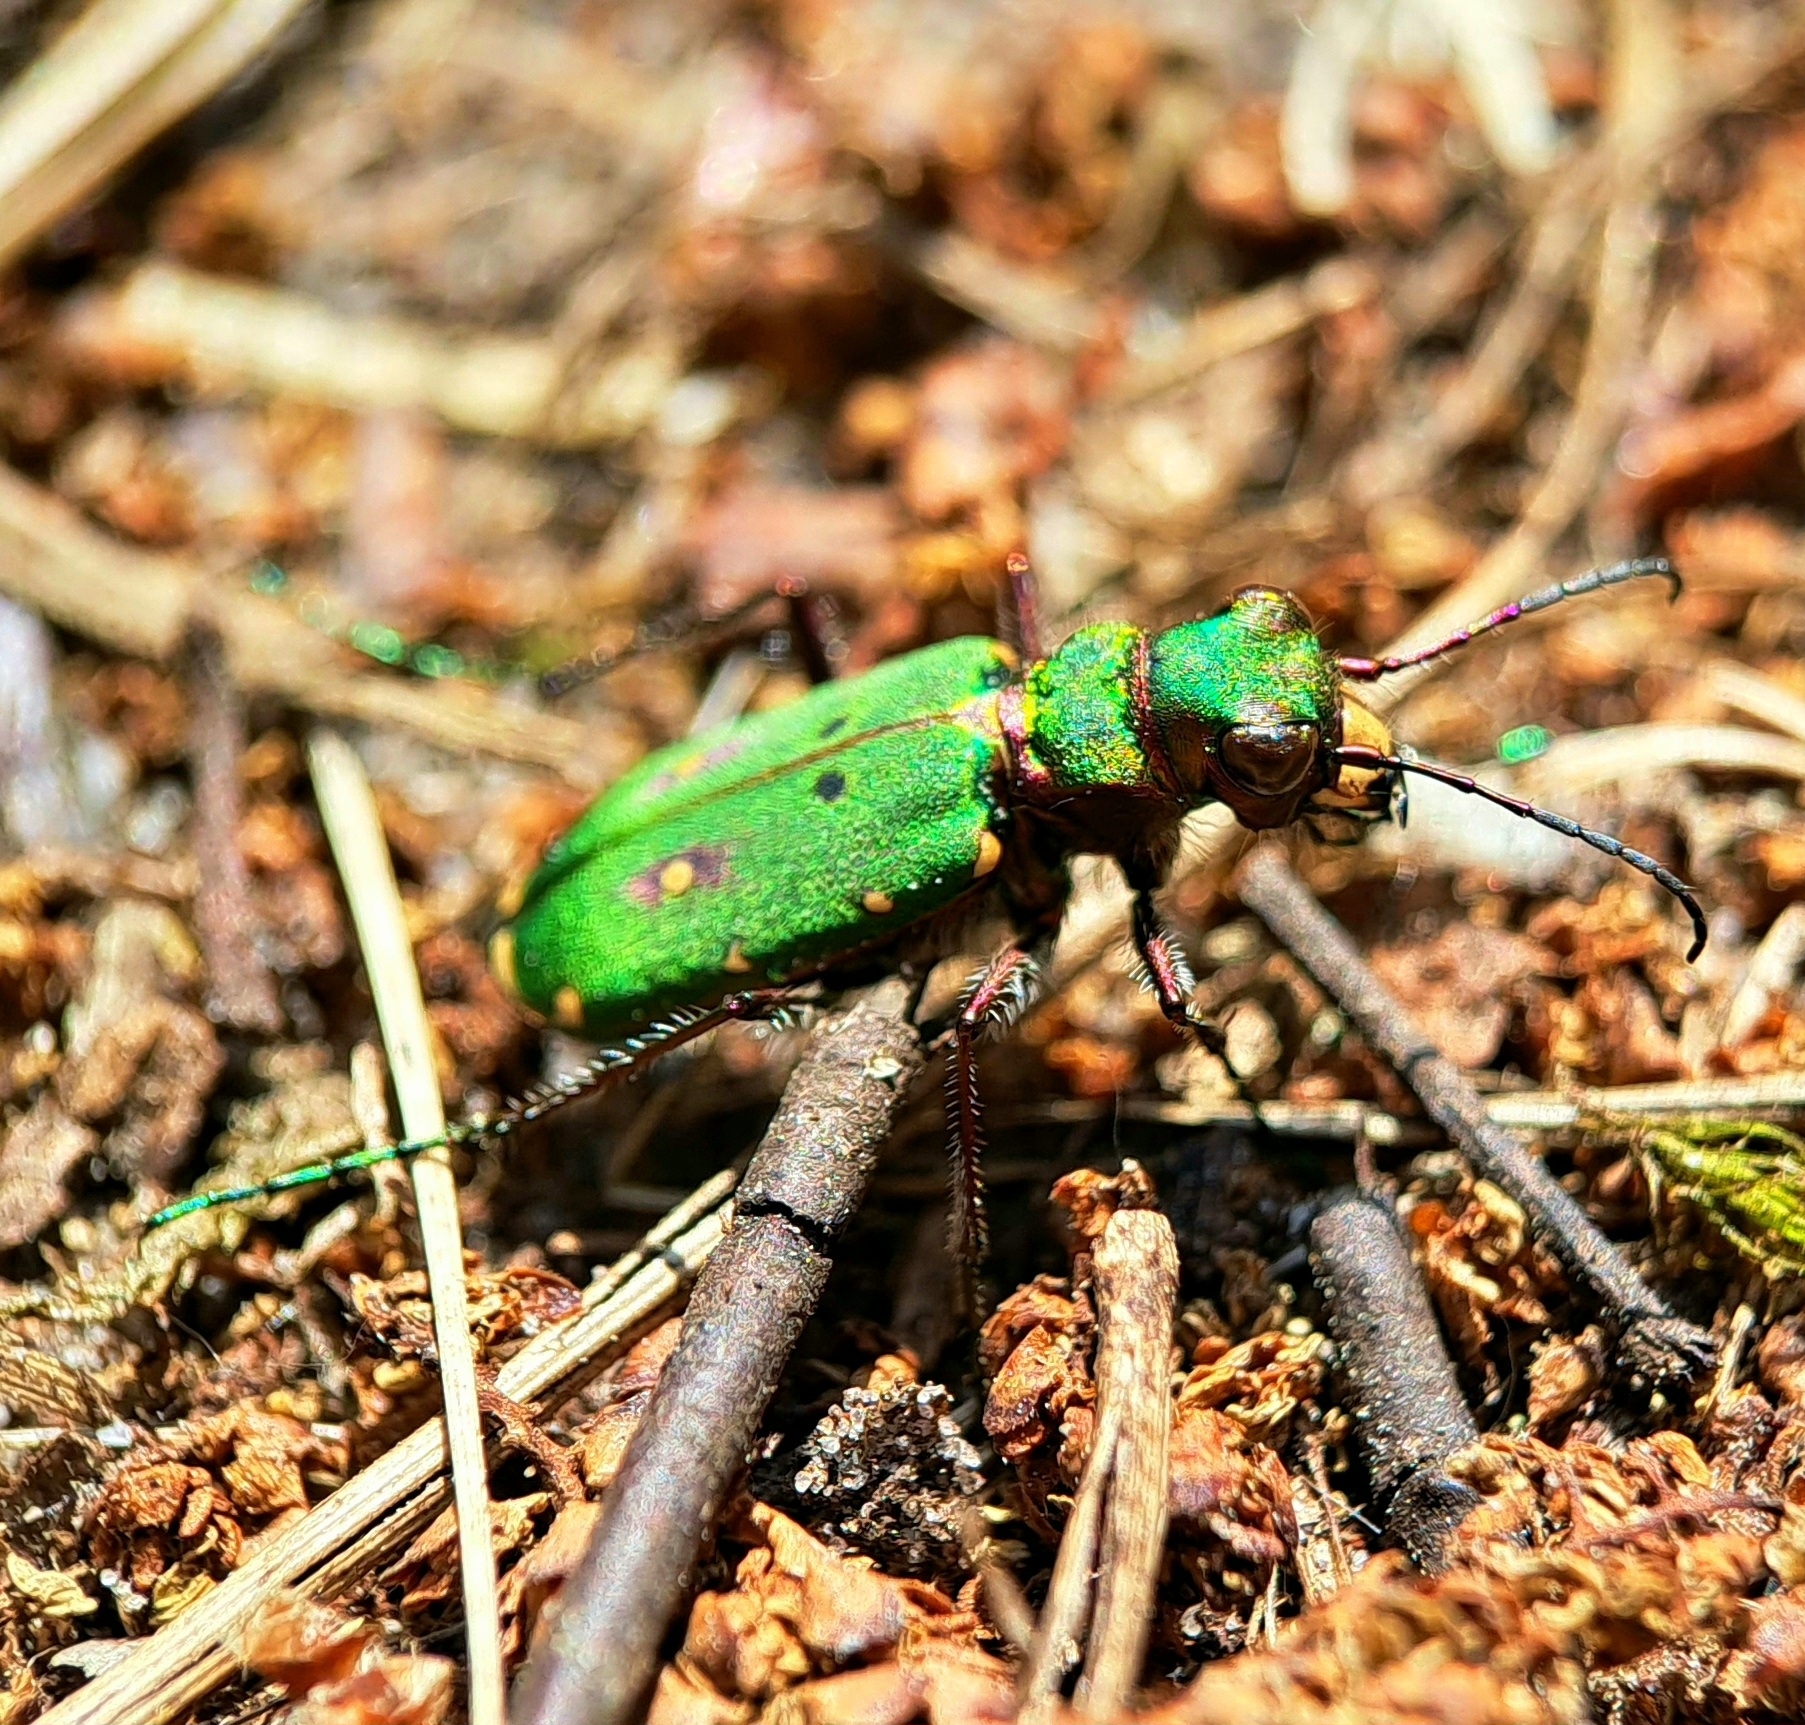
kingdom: Animalia
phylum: Arthropoda
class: Insecta
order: Coleoptera
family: Carabidae
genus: Cicindela
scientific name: Cicindela campestris
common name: Common tiger beetle
